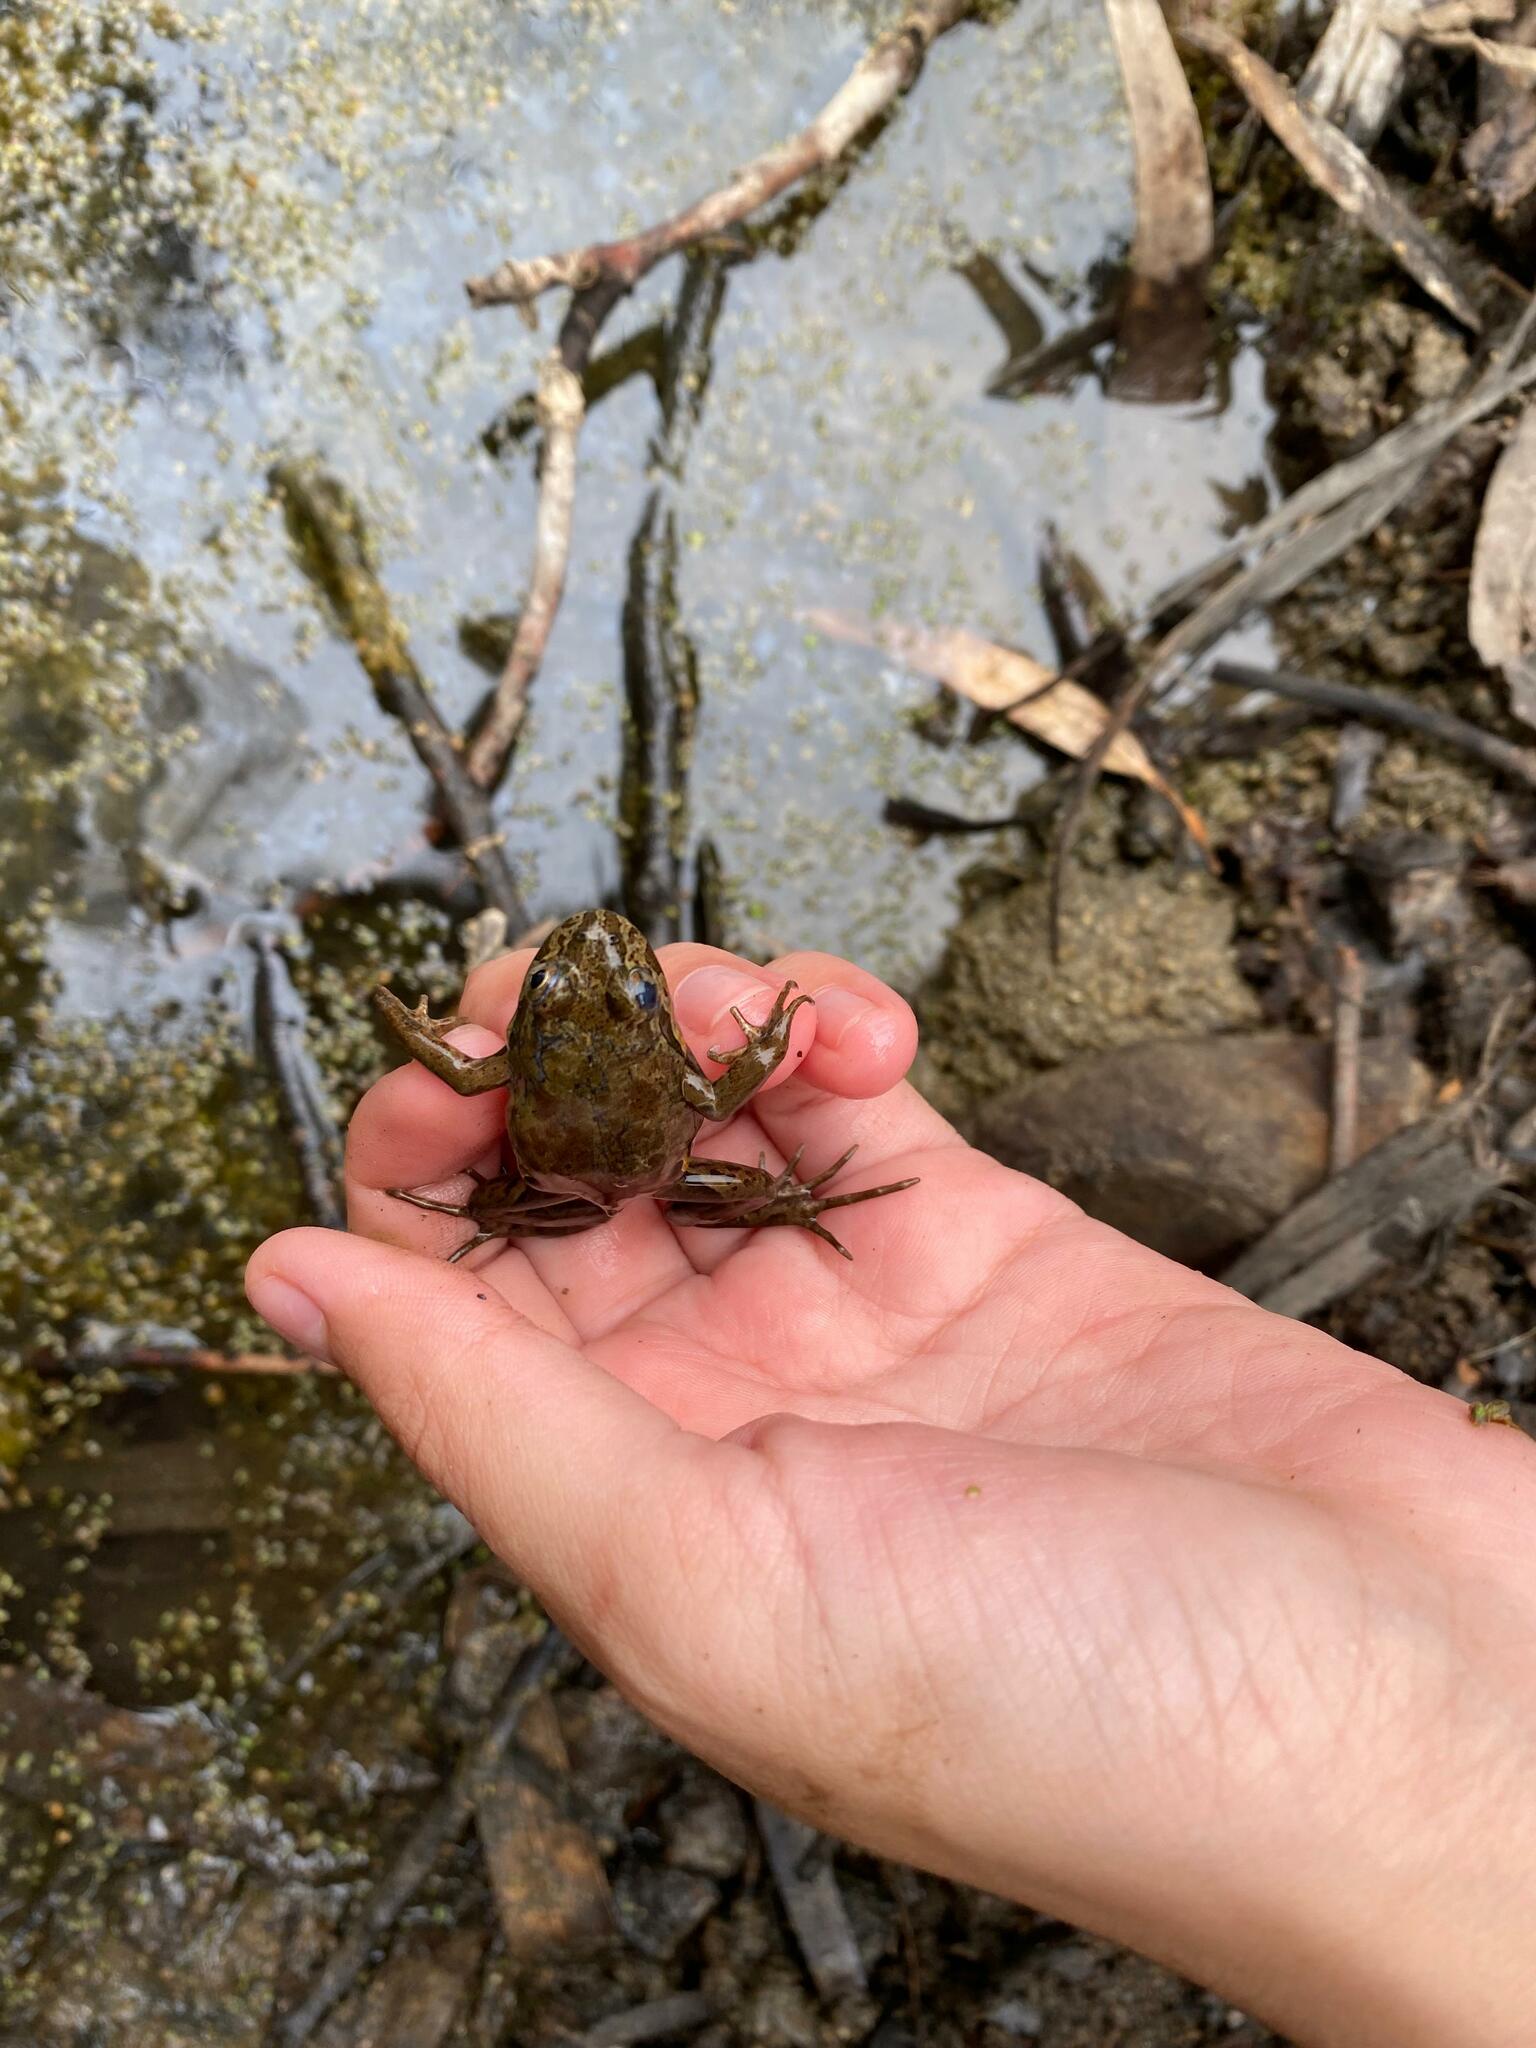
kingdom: Animalia
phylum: Chordata
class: Amphibia
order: Anura
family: Leptodactylidae
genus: Pleurodema
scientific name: Pleurodema thaul
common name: Chile four-eyed frog
